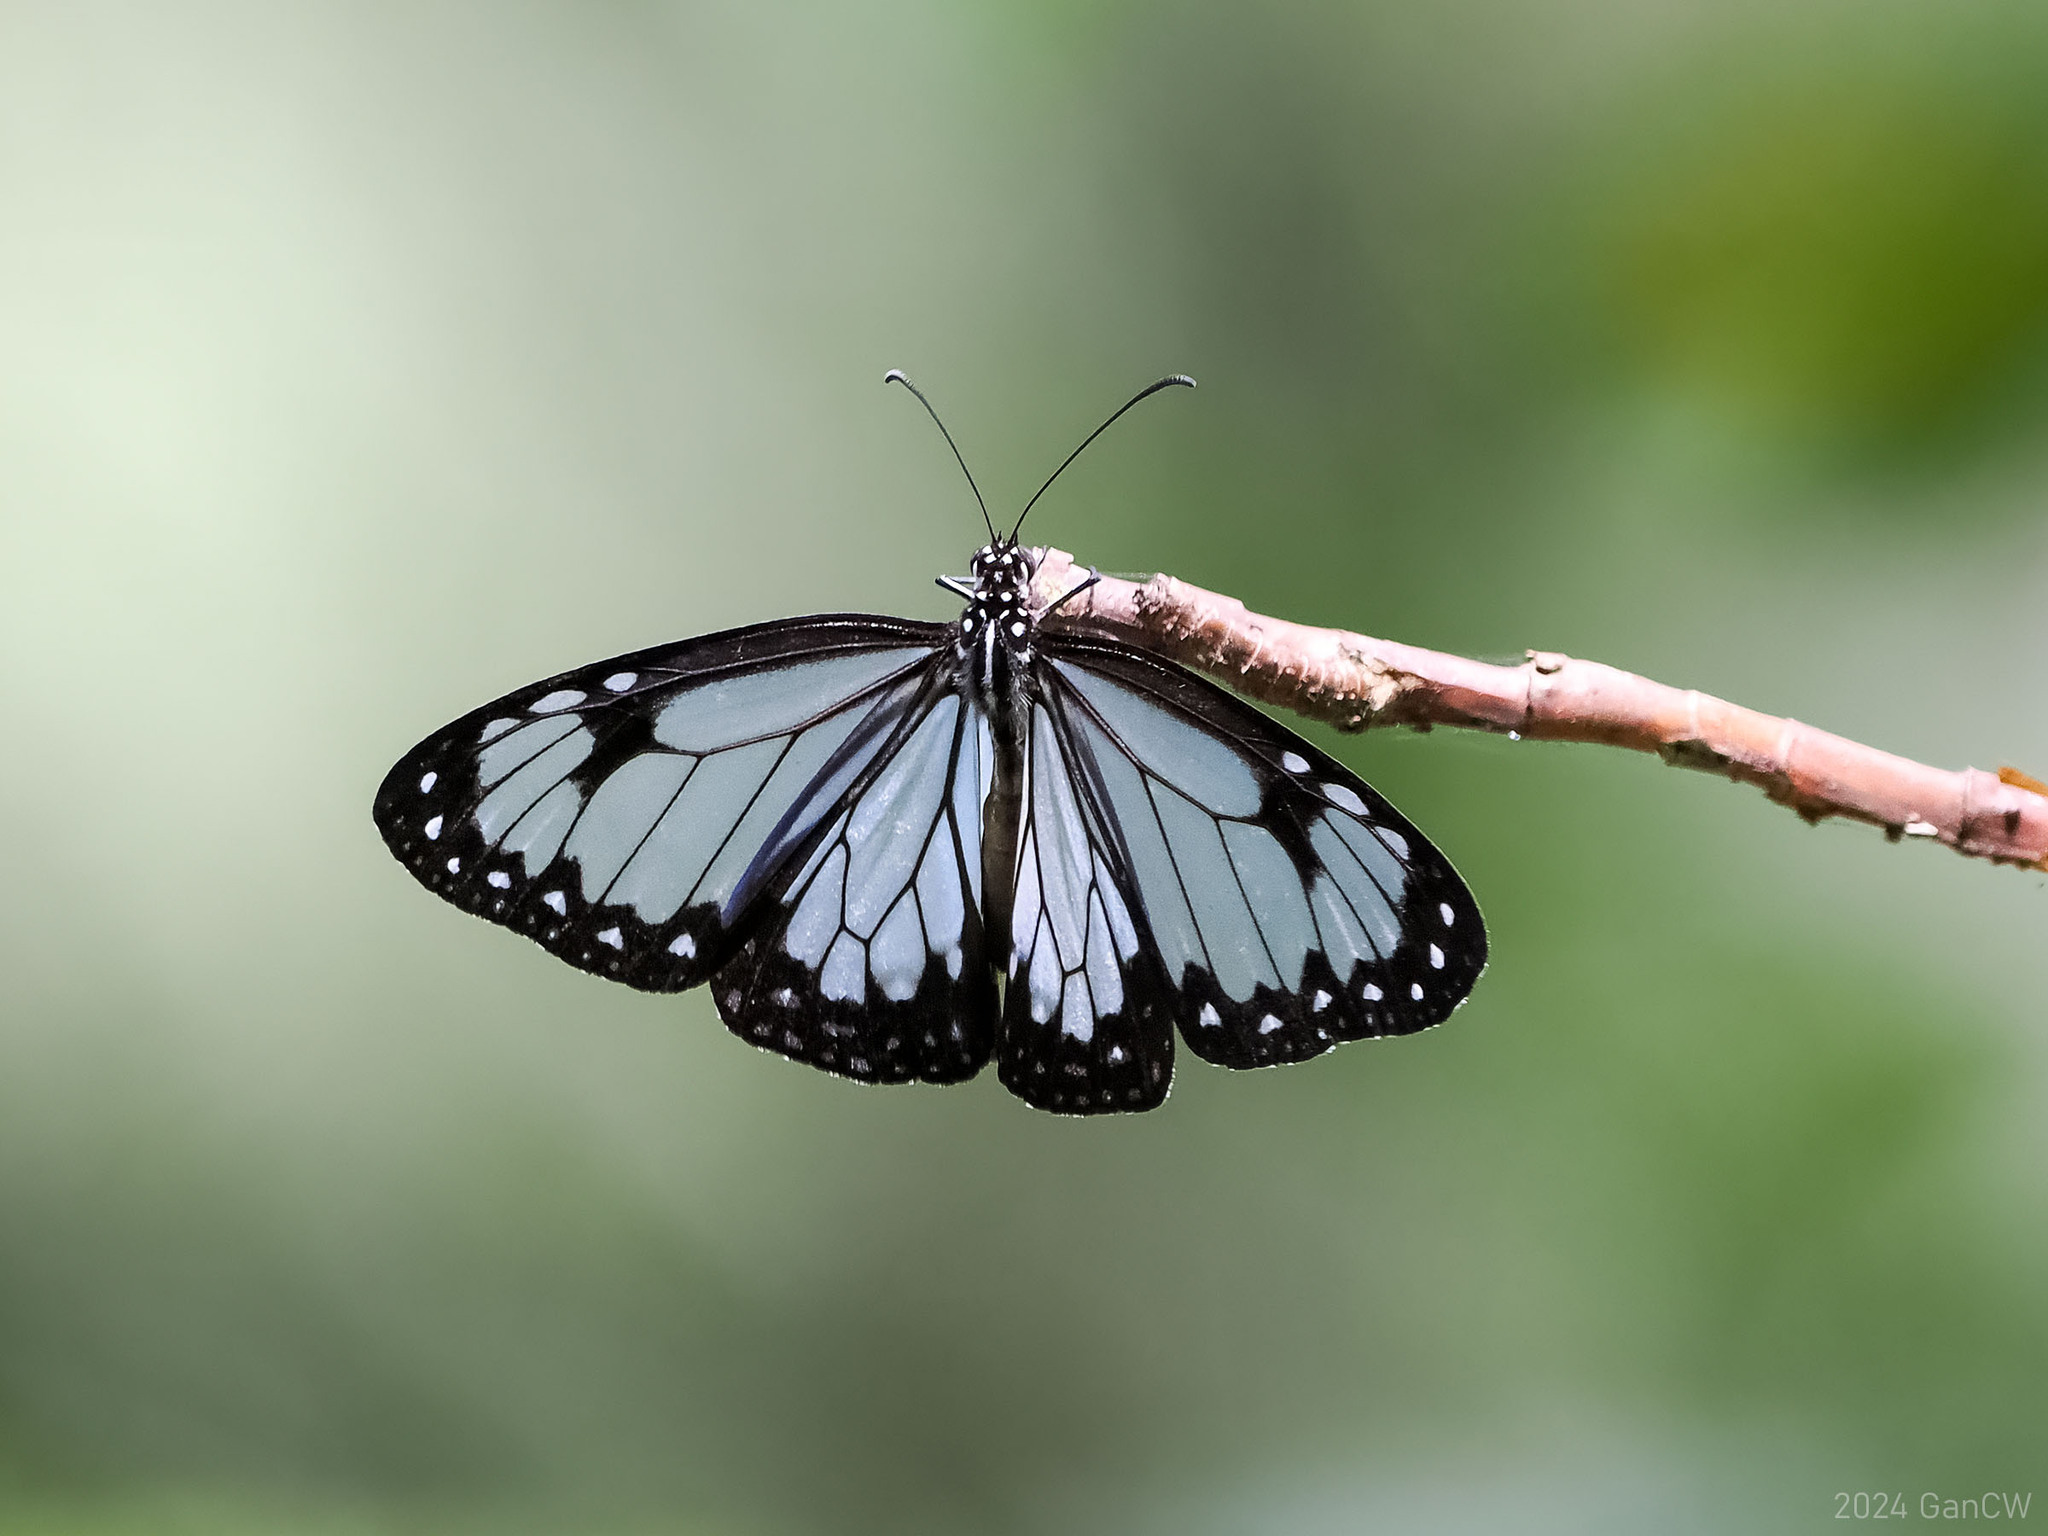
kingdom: Animalia
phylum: Arthropoda
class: Insecta
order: Lepidoptera
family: Nymphalidae
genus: Parantica
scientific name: Parantica vitrina
